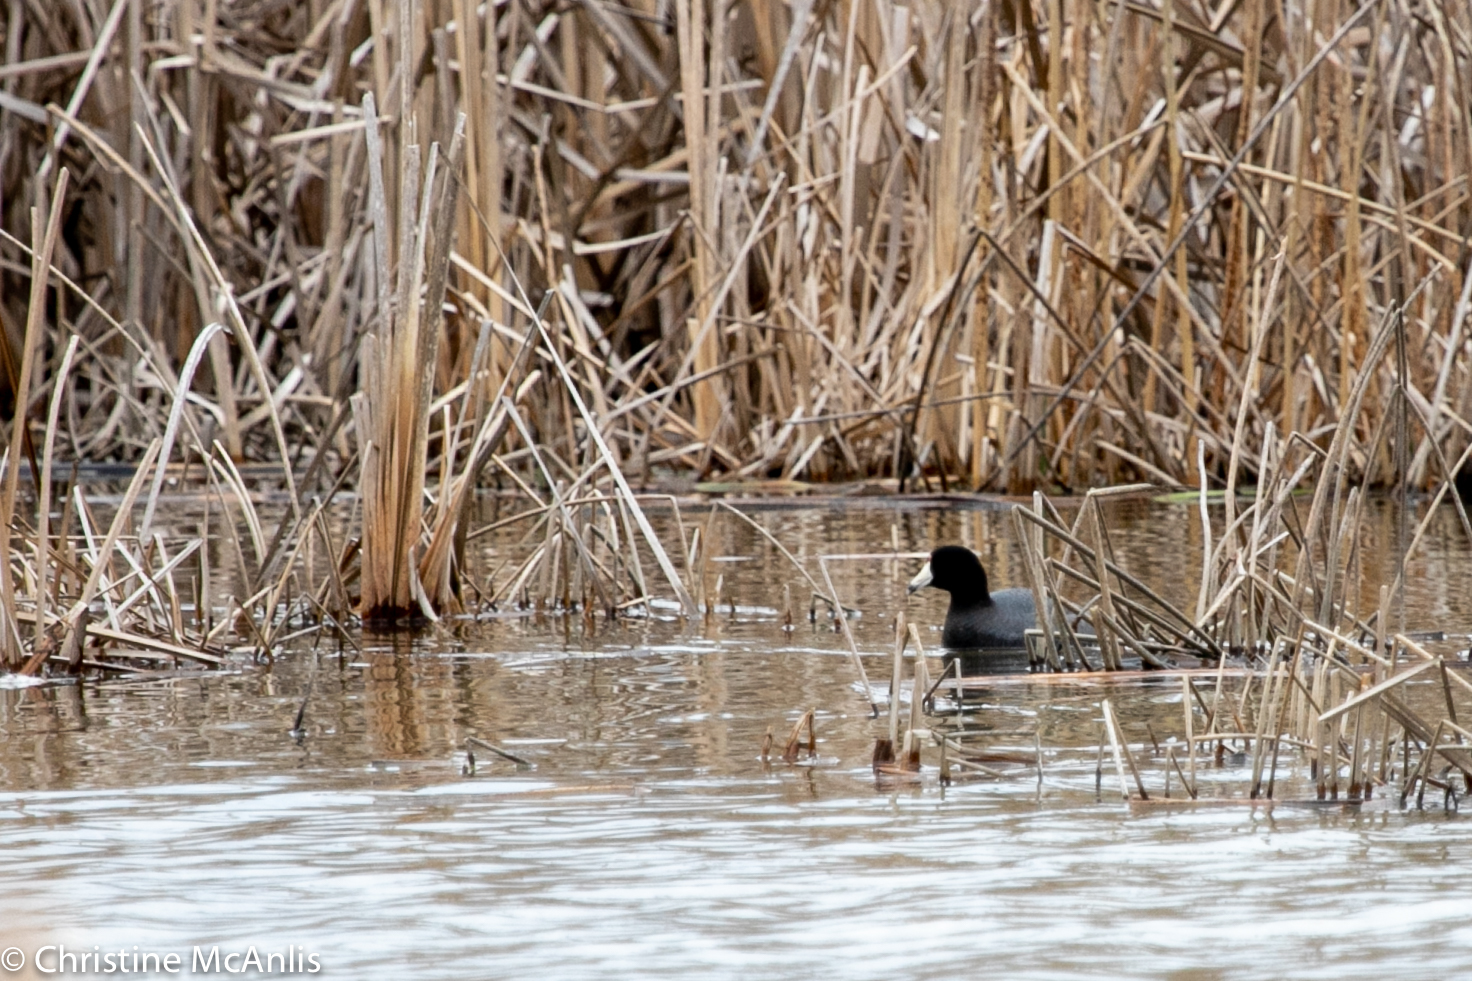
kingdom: Animalia
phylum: Chordata
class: Aves
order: Gruiformes
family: Rallidae
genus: Fulica
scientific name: Fulica americana
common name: American coot
